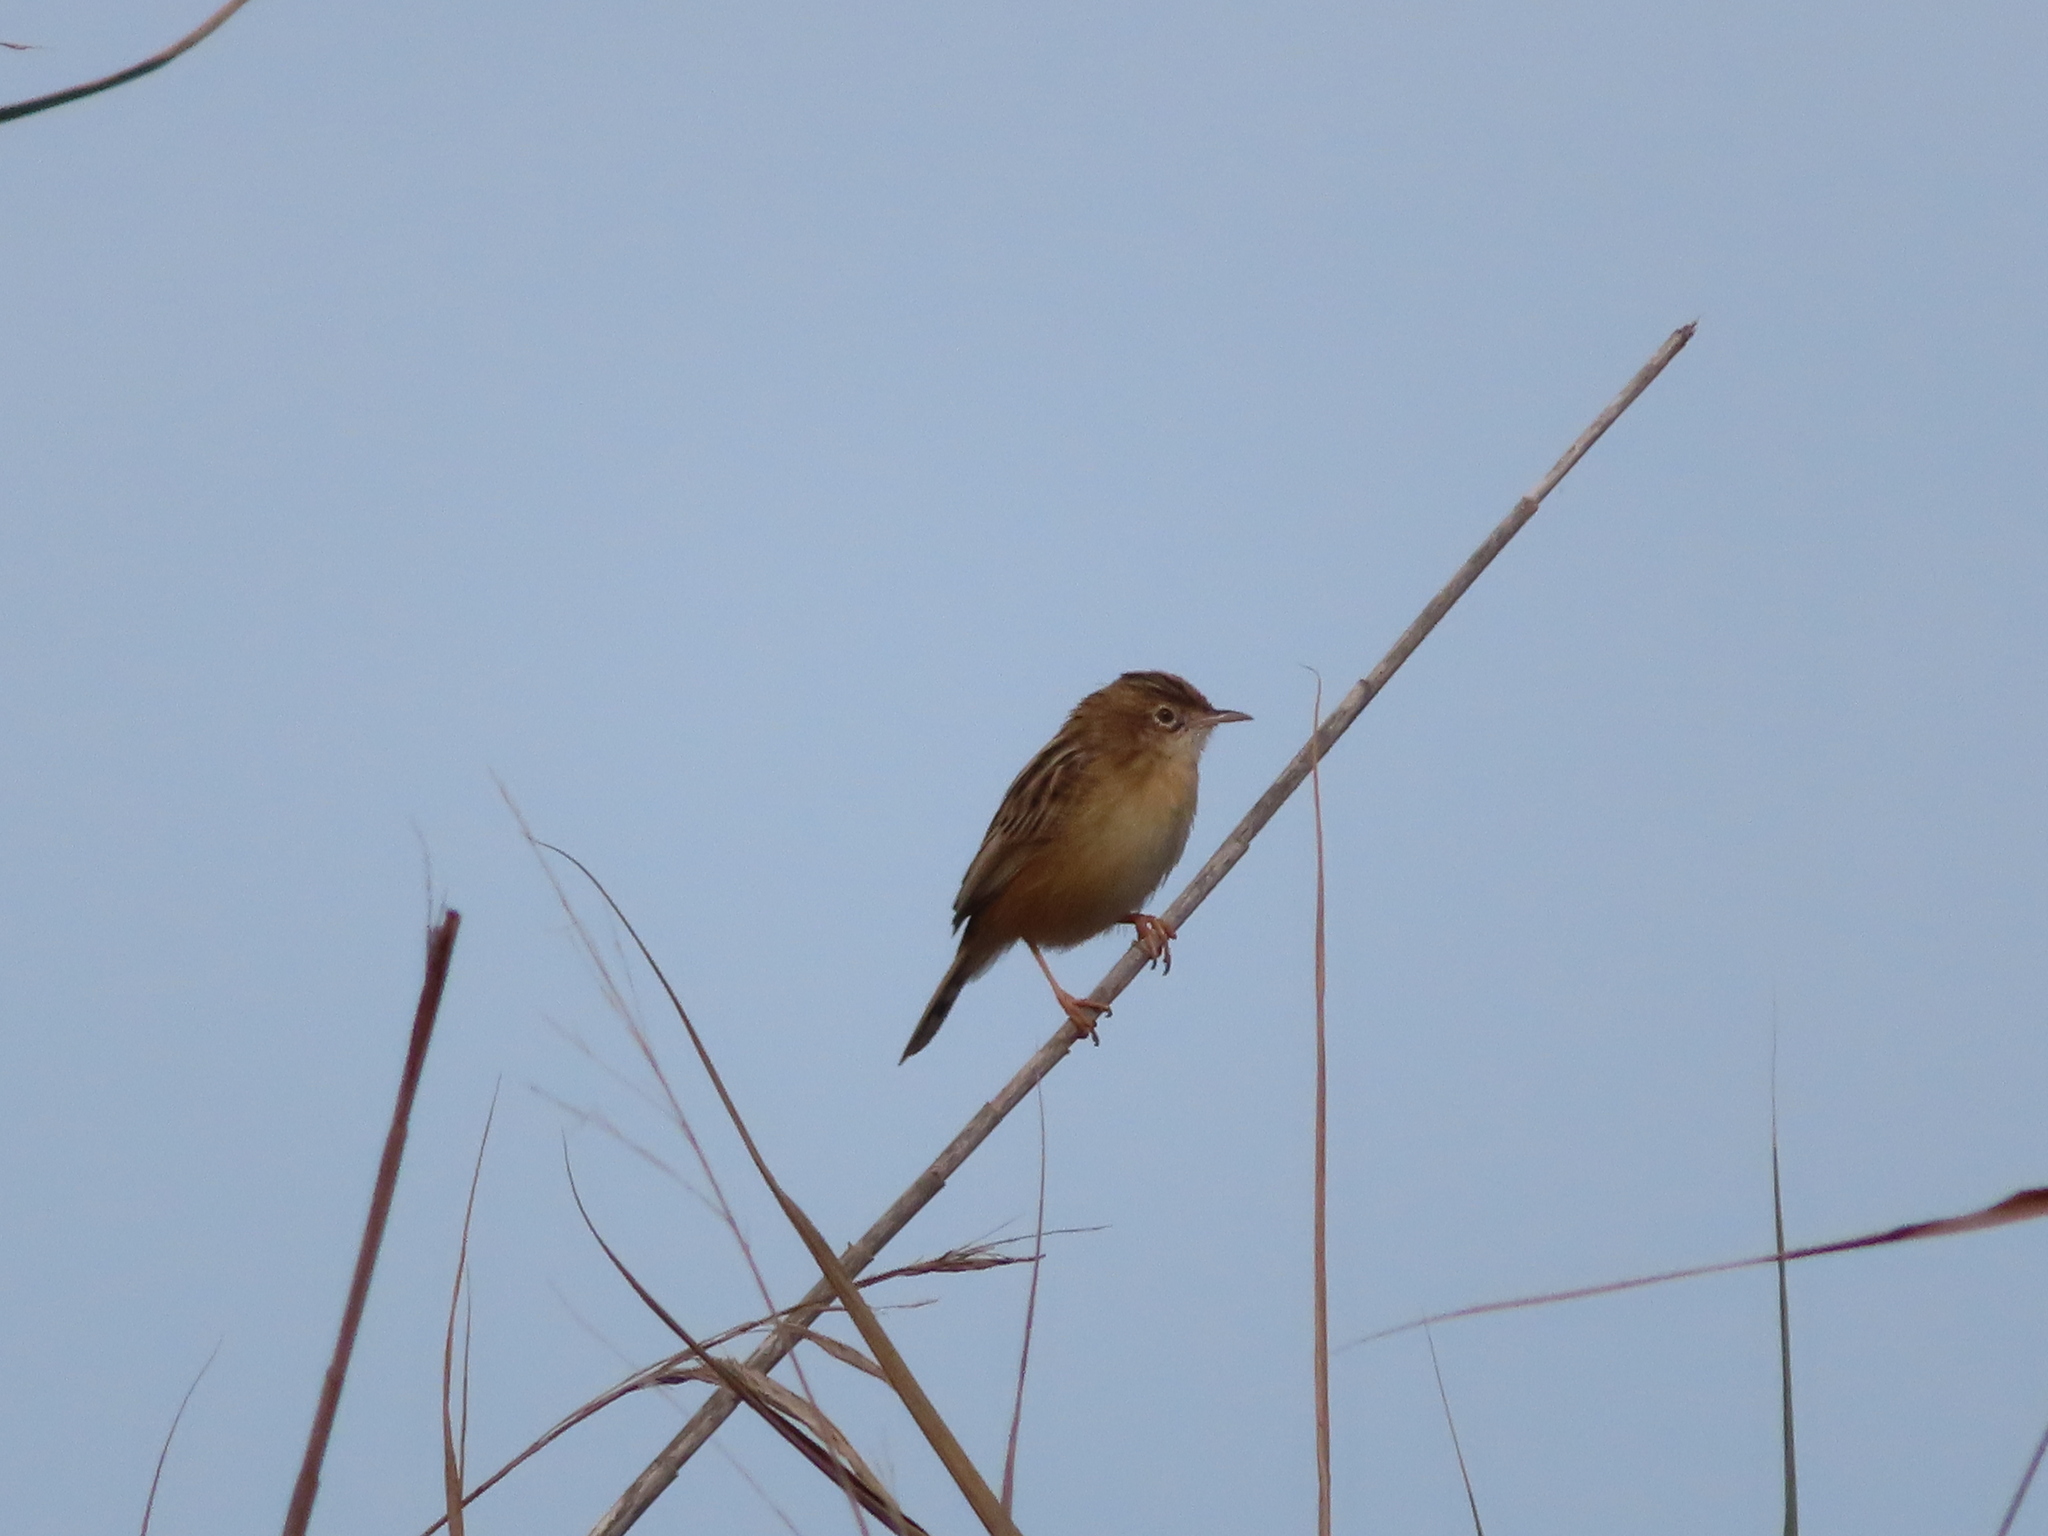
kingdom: Animalia
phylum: Chordata
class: Aves
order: Passeriformes
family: Cisticolidae
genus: Cisticola
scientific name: Cisticola juncidis
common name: Zitting cisticola
